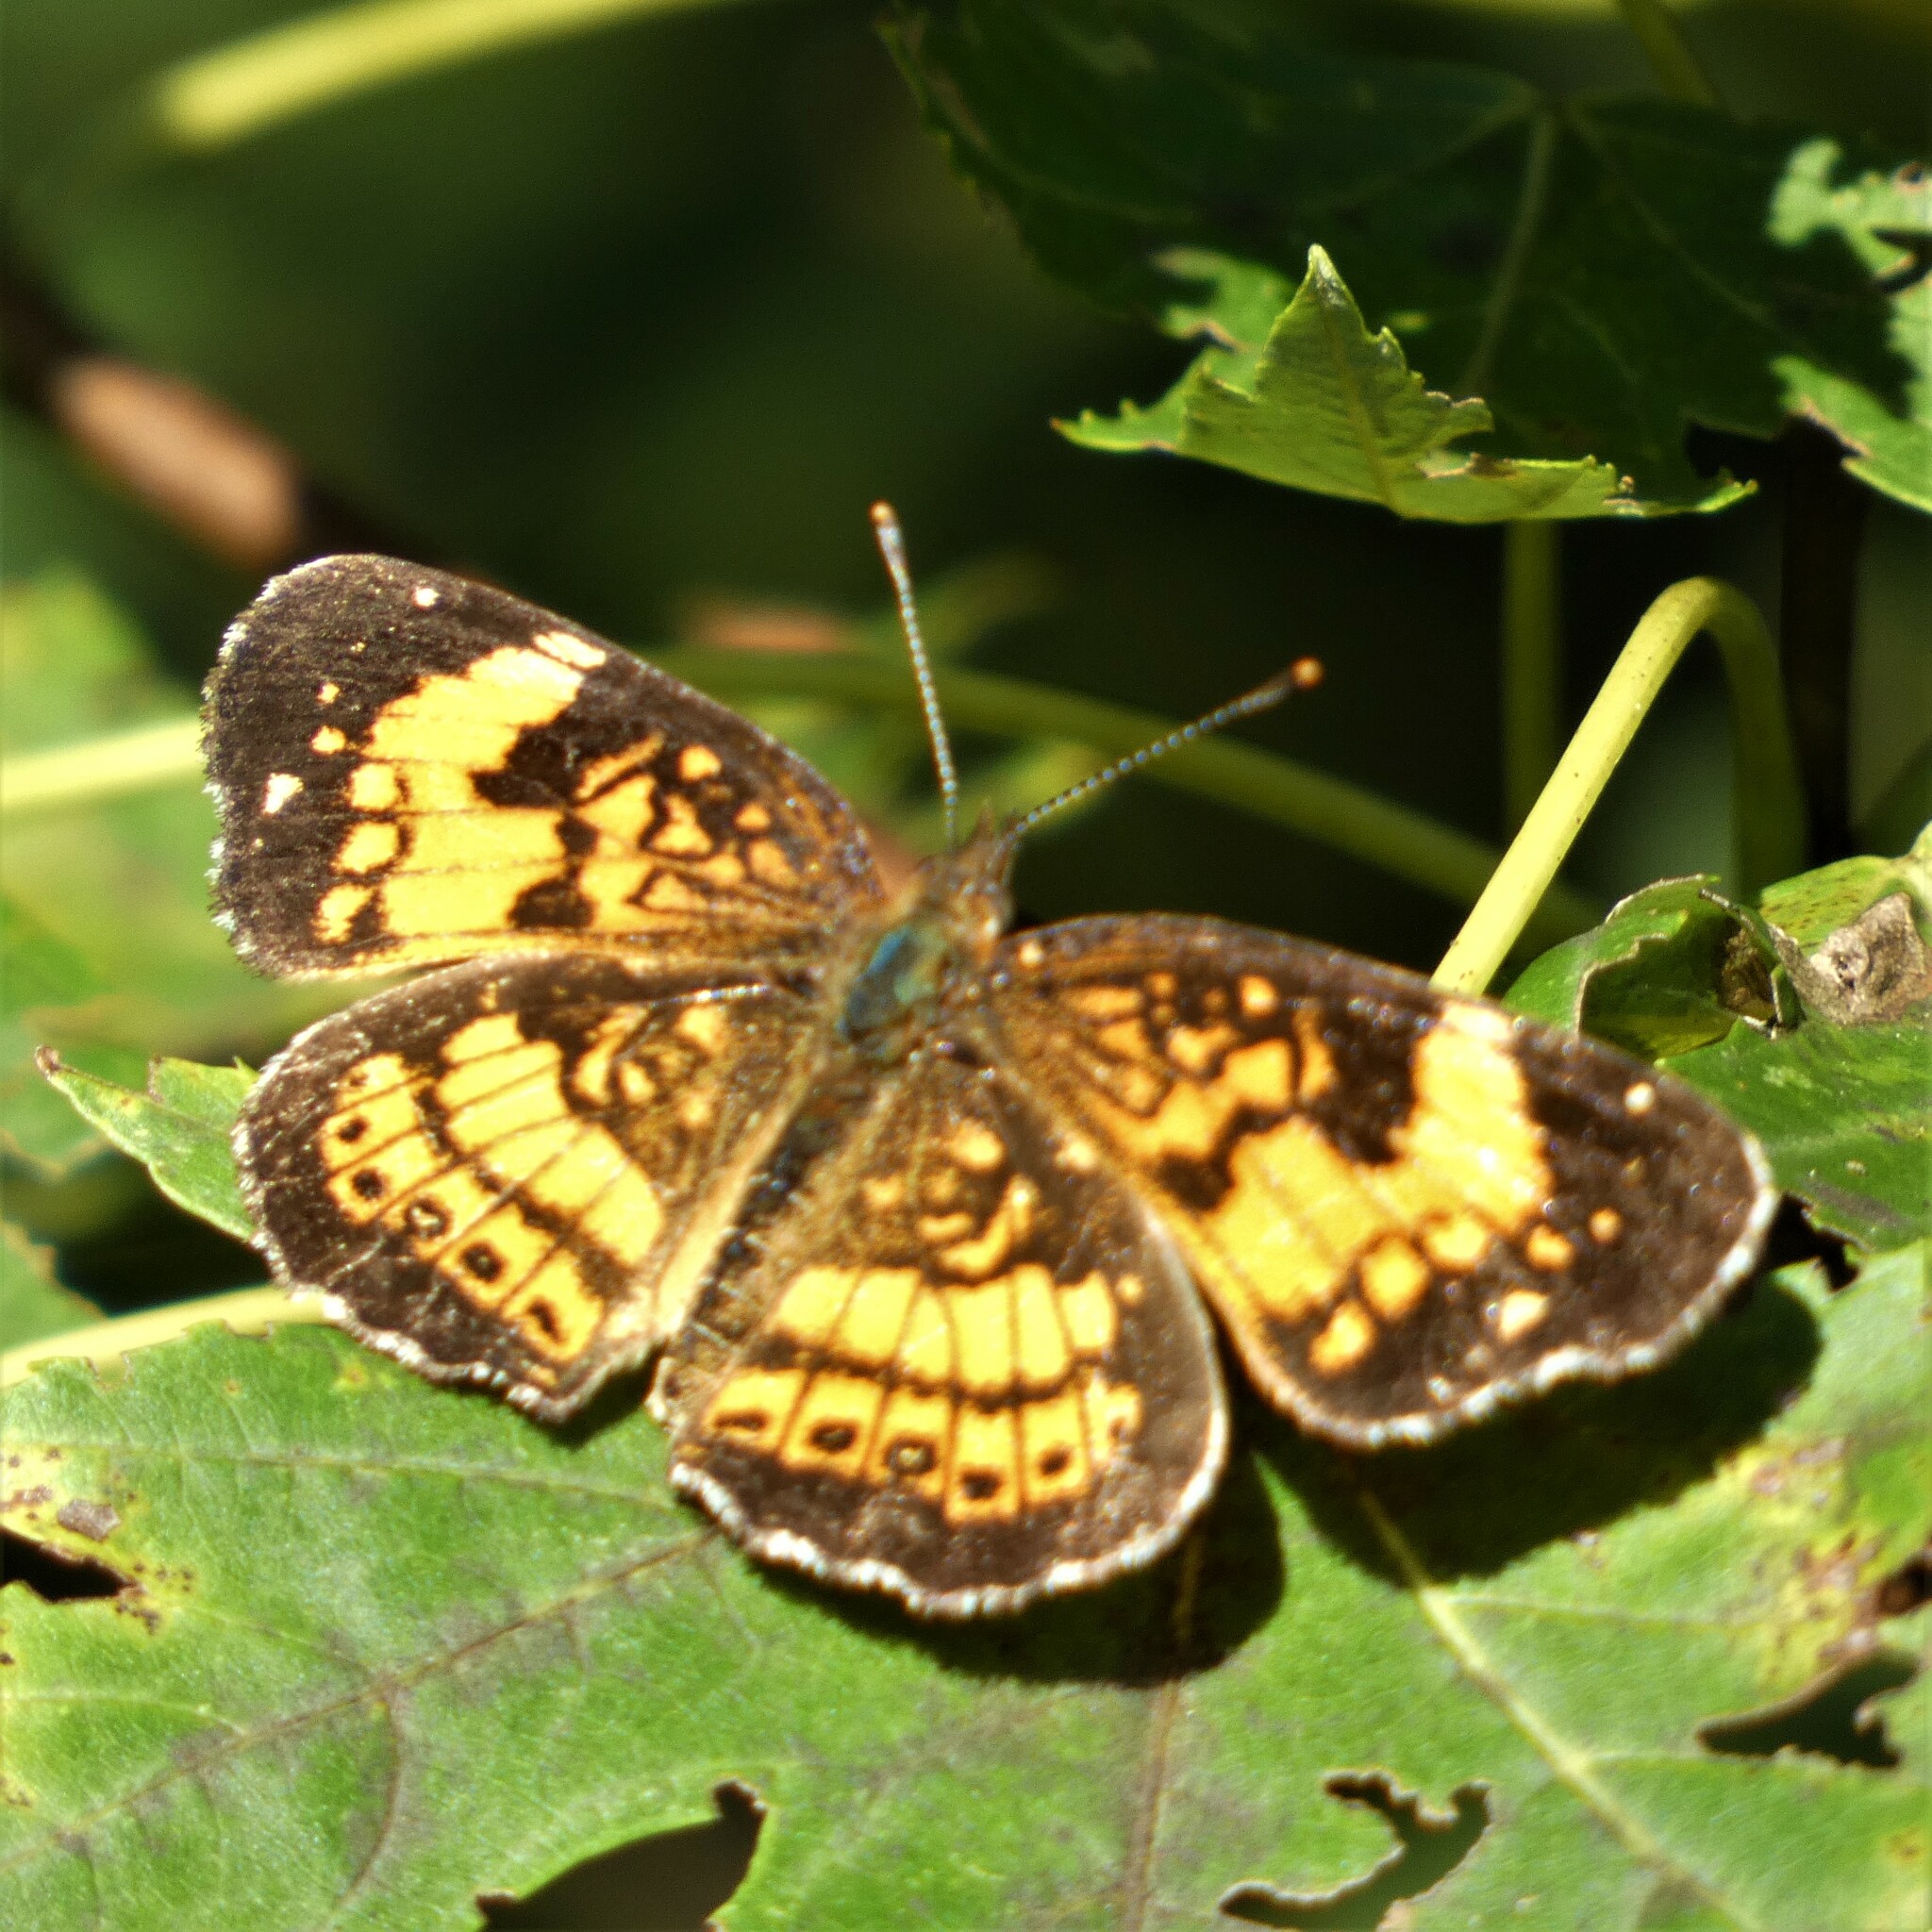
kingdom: Animalia
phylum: Arthropoda
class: Insecta
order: Lepidoptera
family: Nymphalidae
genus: Chlosyne
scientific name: Chlosyne nycteis
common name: Silvery checkerspot
